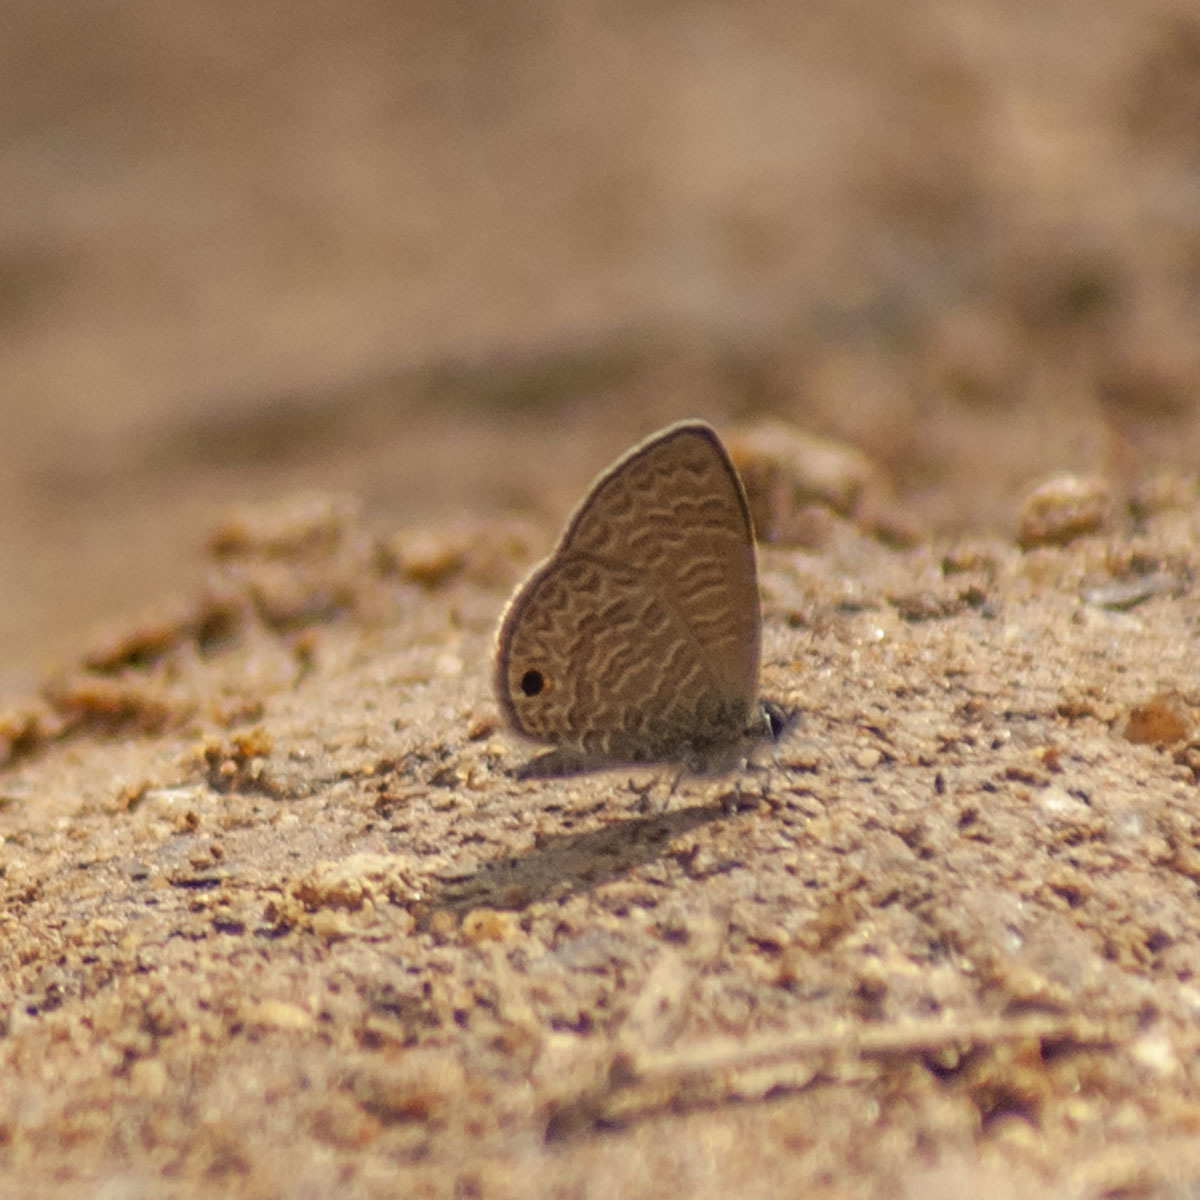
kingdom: Animalia
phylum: Arthropoda
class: Insecta
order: Lepidoptera
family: Lycaenidae
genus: Prosotas
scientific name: Prosotas dubiosa
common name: Tailless lineblue
